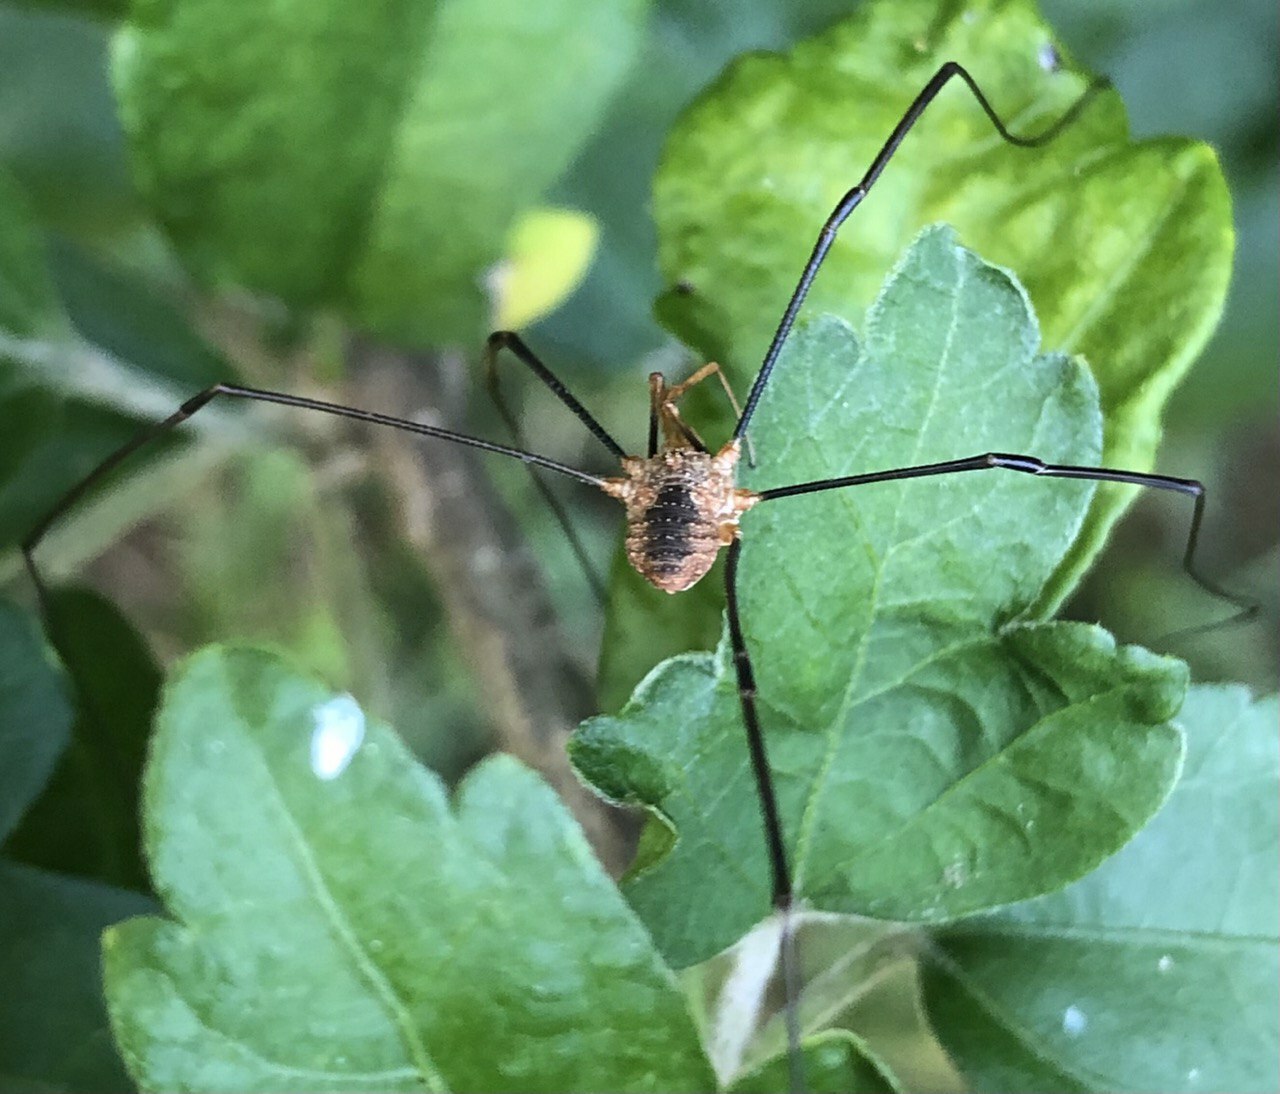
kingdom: Animalia
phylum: Arthropoda
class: Arachnida
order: Opiliones
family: Phalangiidae
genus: Phalangium
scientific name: Phalangium opilio
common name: Daddy longleg
